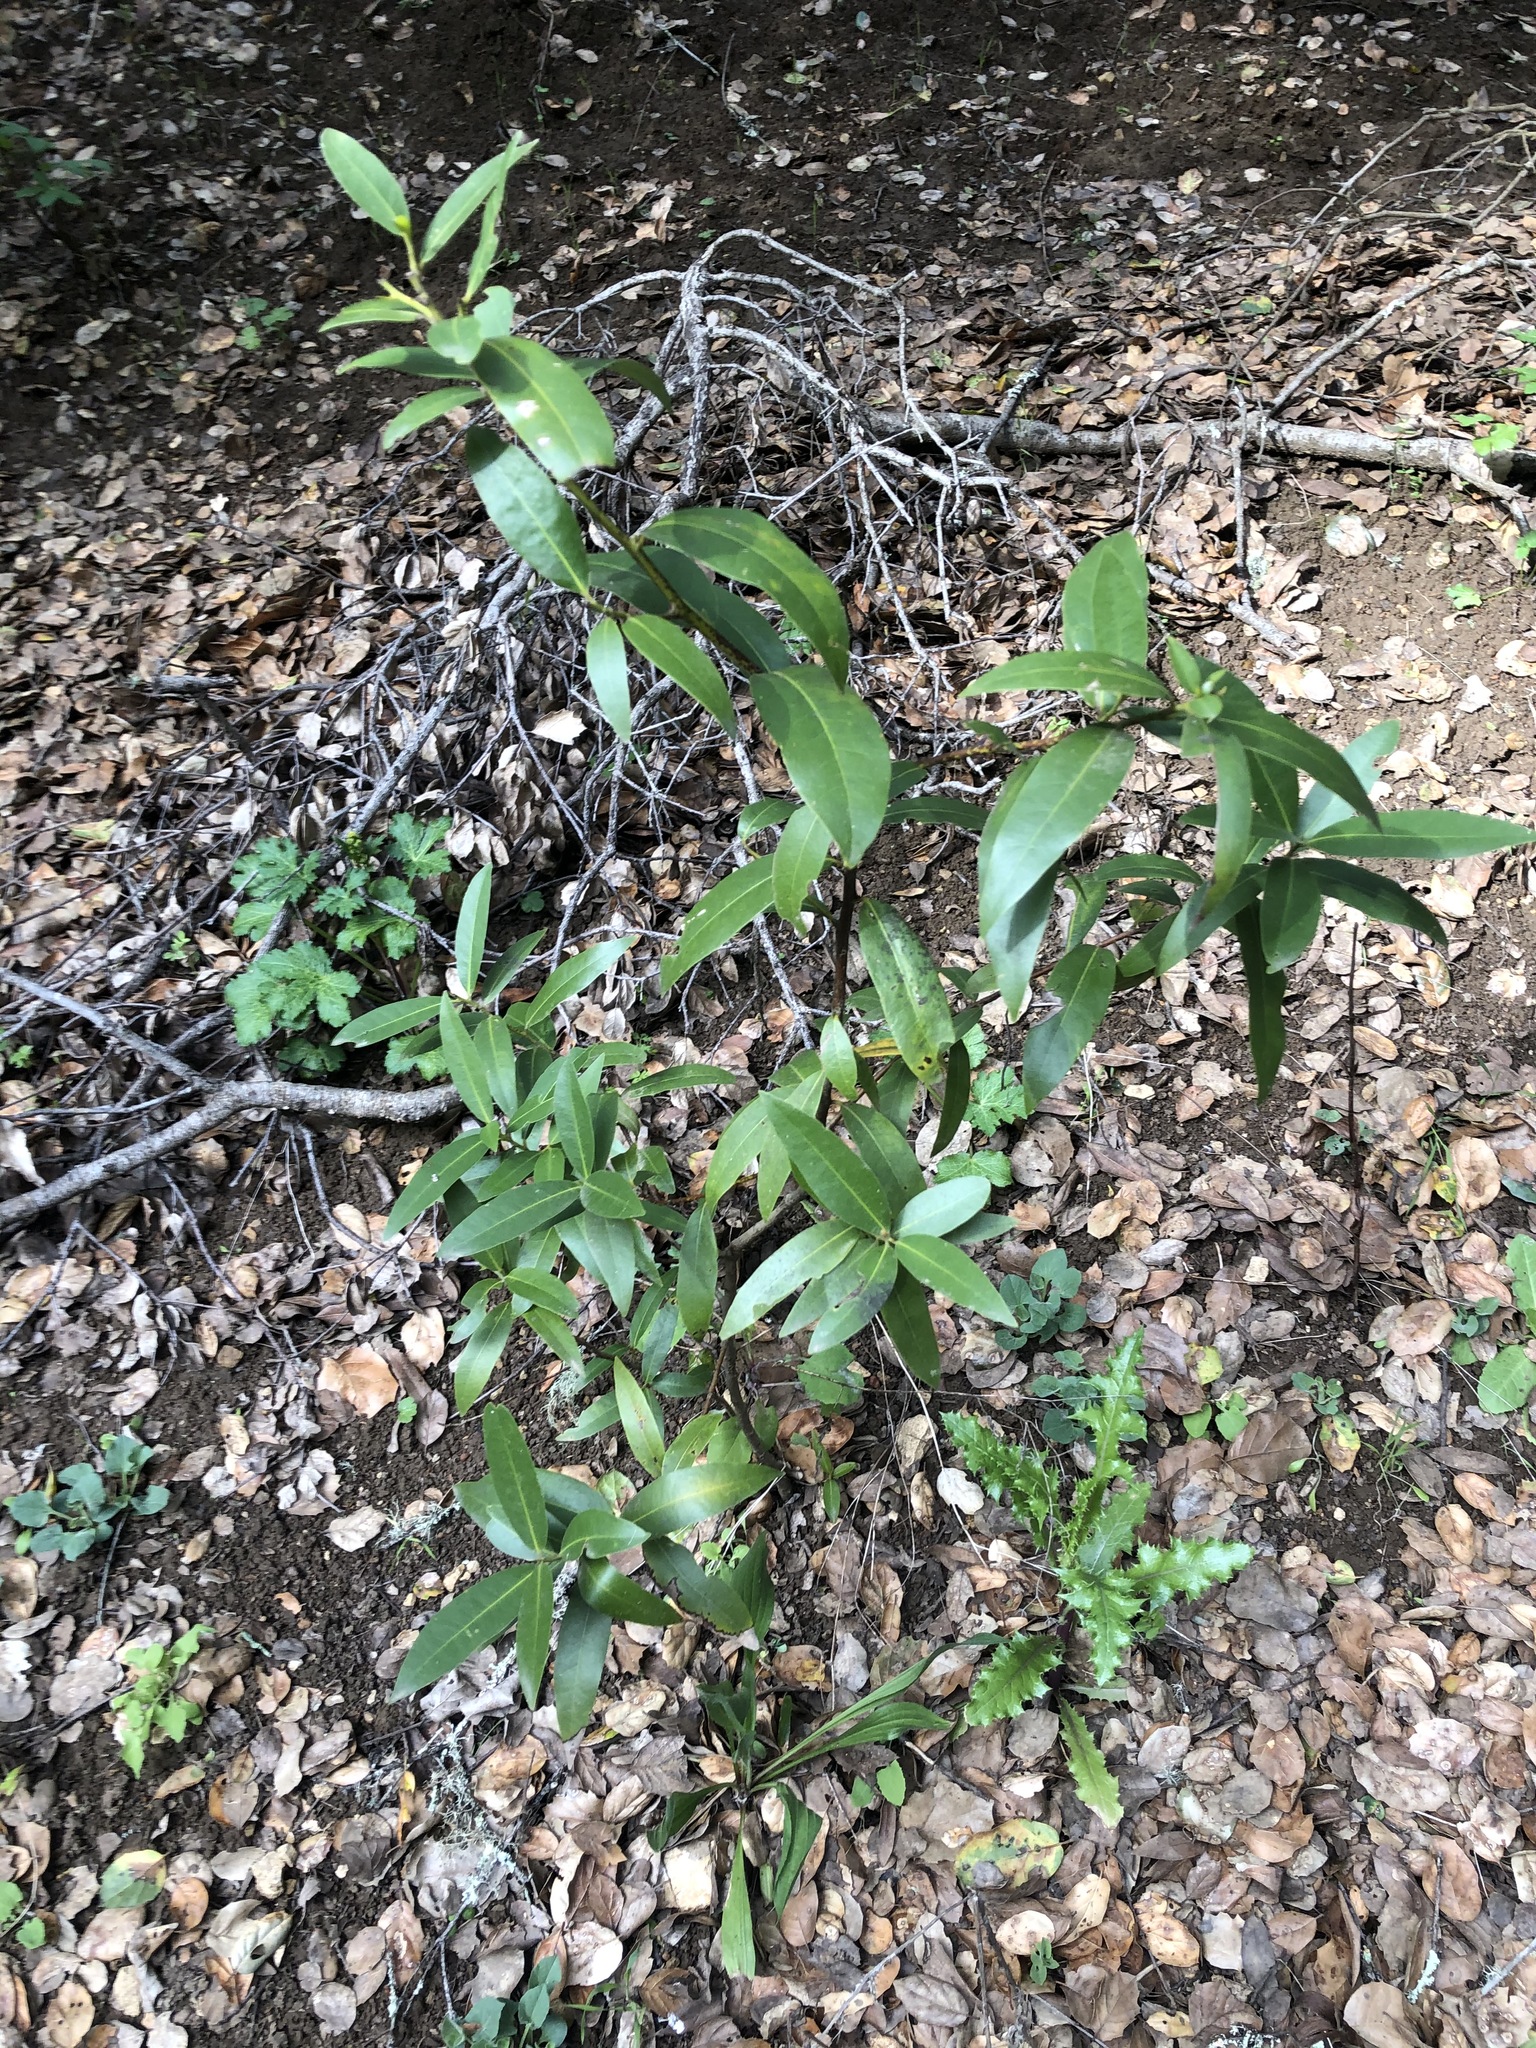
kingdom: Plantae
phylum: Tracheophyta
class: Magnoliopsida
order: Laurales
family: Lauraceae
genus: Umbellularia
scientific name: Umbellularia californica
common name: California bay
